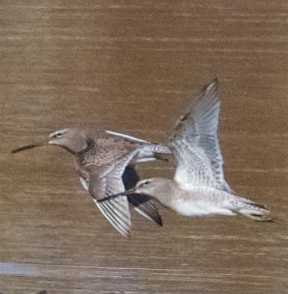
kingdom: Animalia
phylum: Chordata
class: Aves
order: Charadriiformes
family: Scolopacidae
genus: Limnodromus
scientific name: Limnodromus scolopaceus
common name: Long-billed dowitcher
